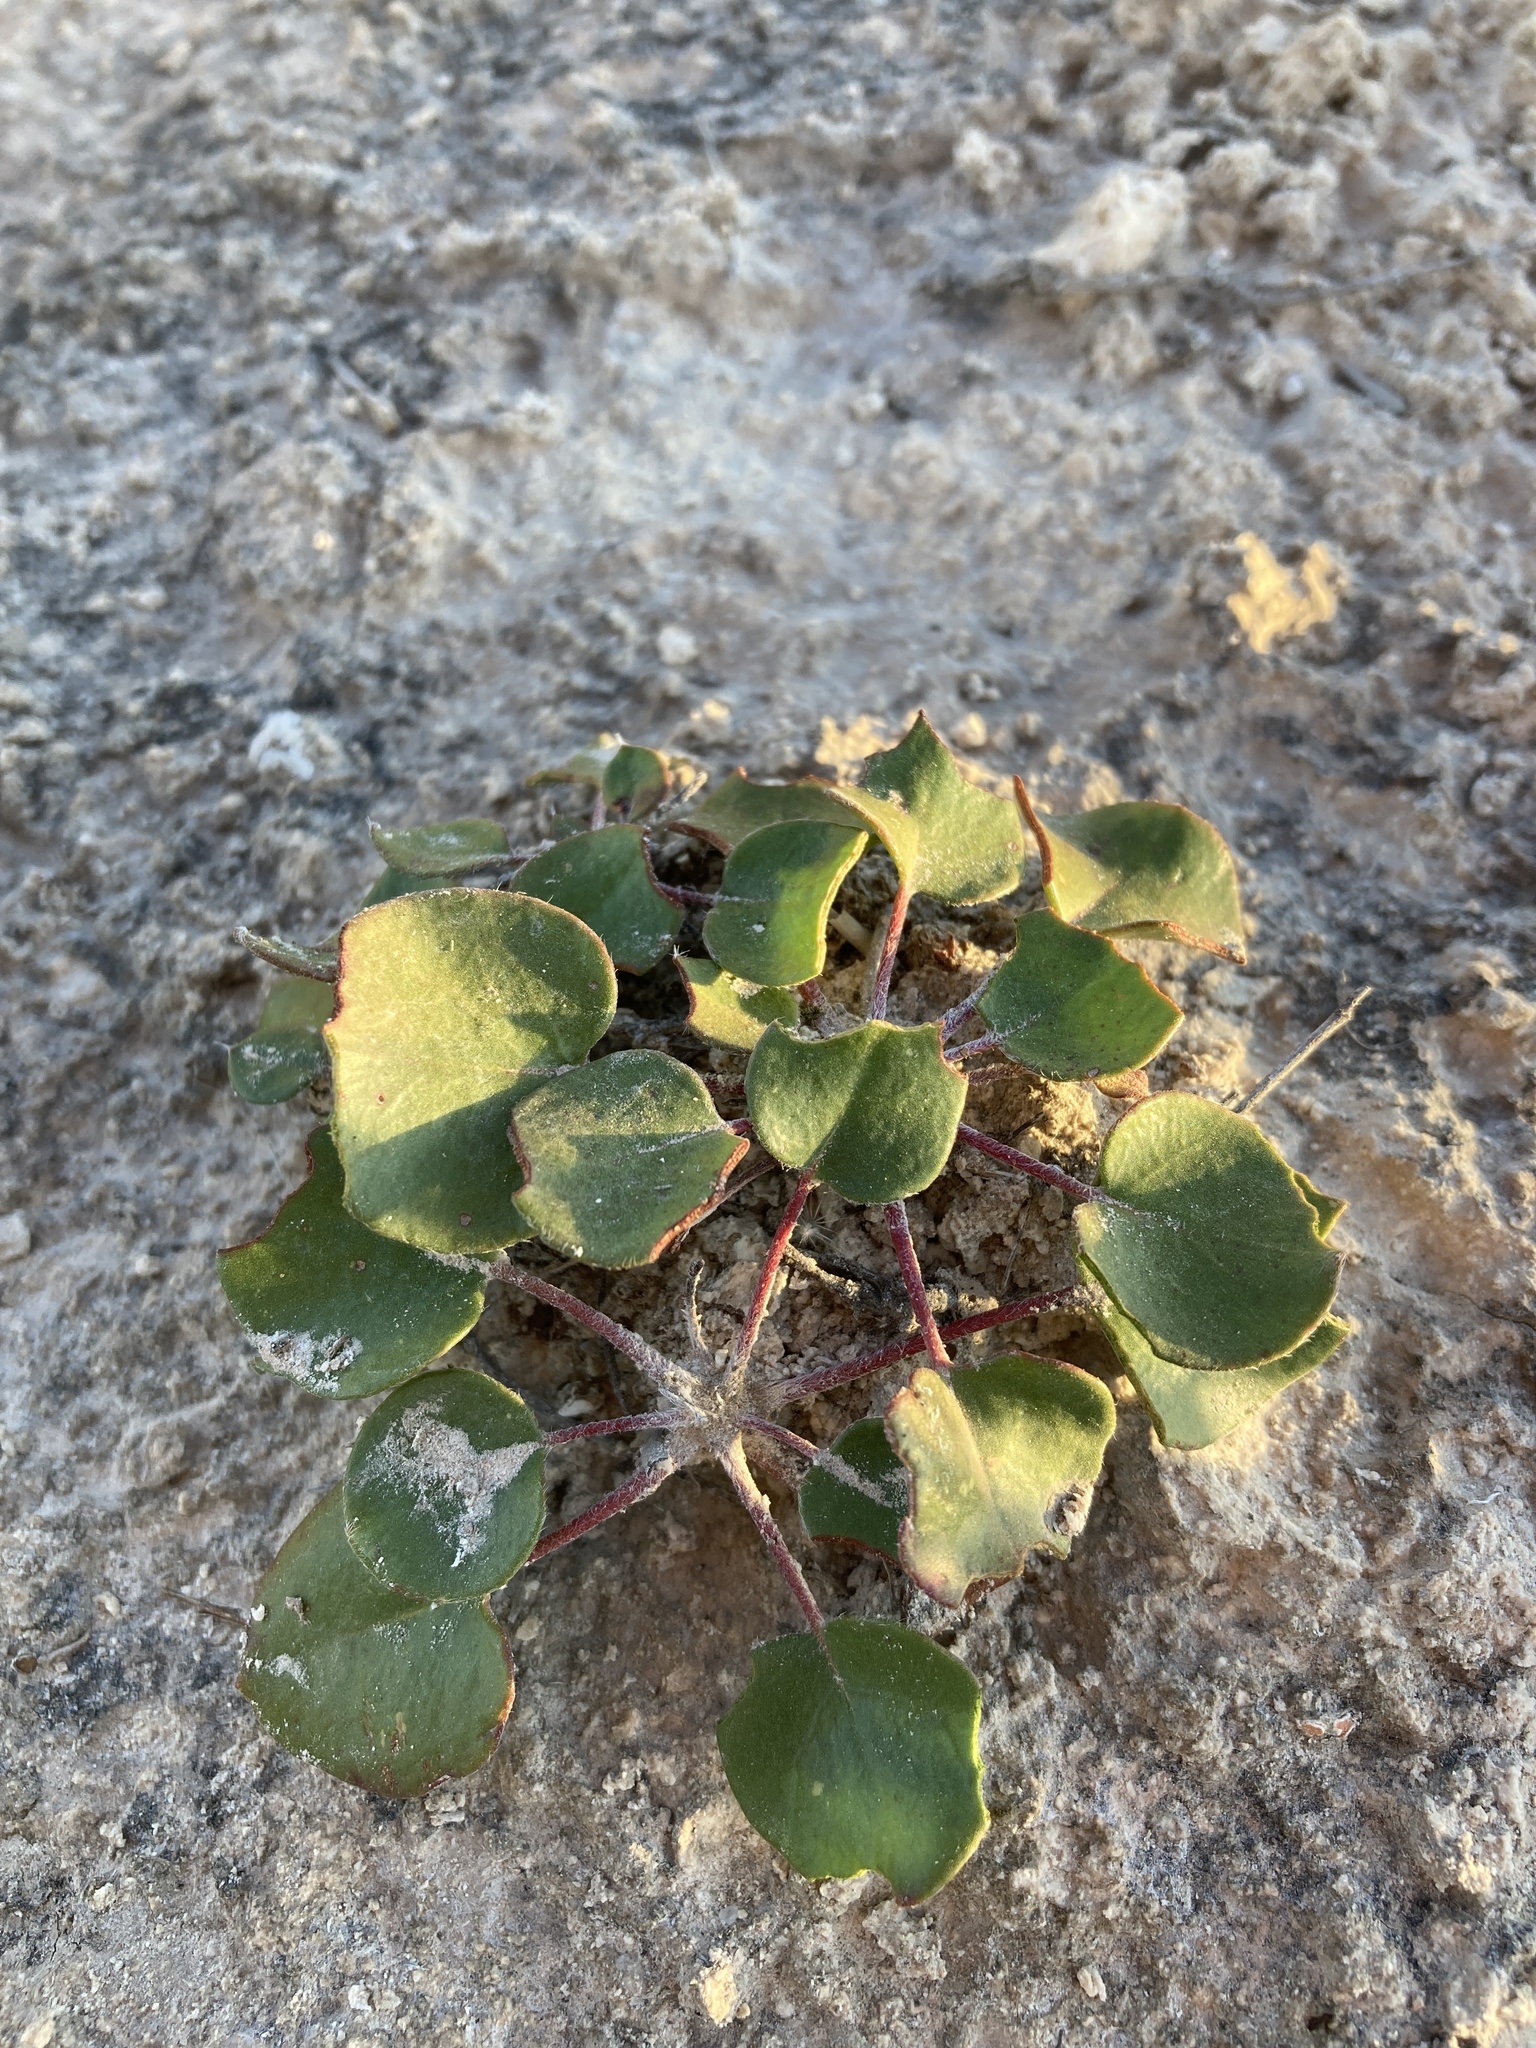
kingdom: Plantae
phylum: Tracheophyta
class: Magnoliopsida
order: Caryophyllales
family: Polygonaceae
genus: Eriogonum
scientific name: Eriogonum gypsophilum
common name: Seven river hills-buckwheat
